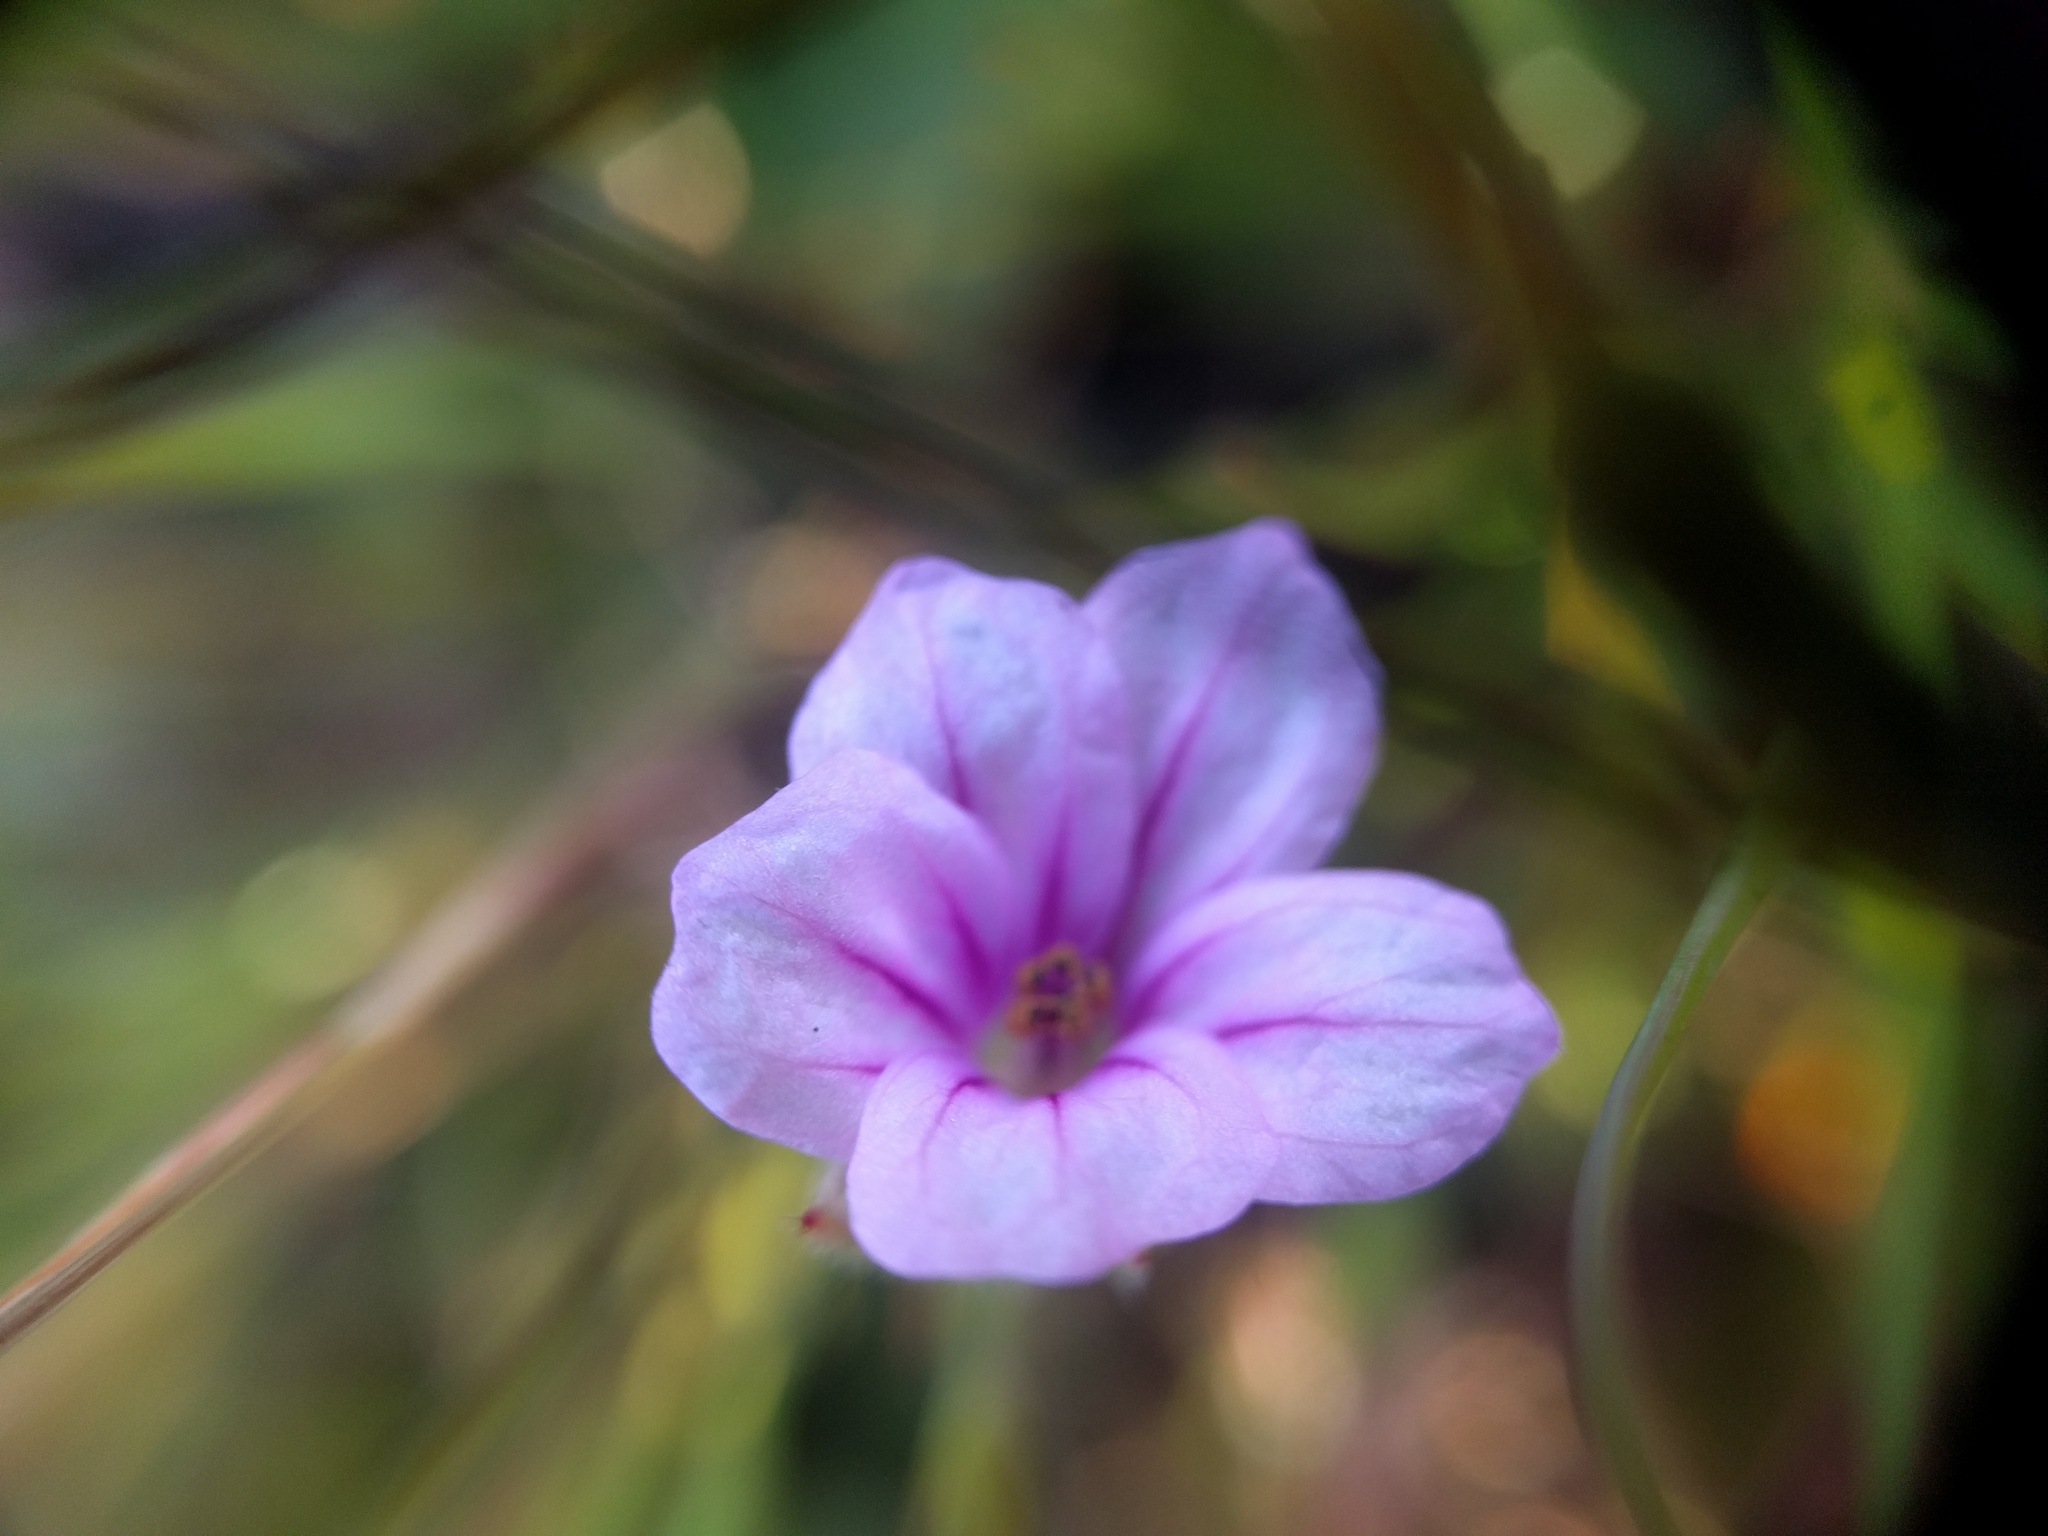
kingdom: Plantae
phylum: Tracheophyta
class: Magnoliopsida
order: Geraniales
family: Geraniaceae
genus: Erodium
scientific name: Erodium botrys
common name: Mediterranean stork's-bill
